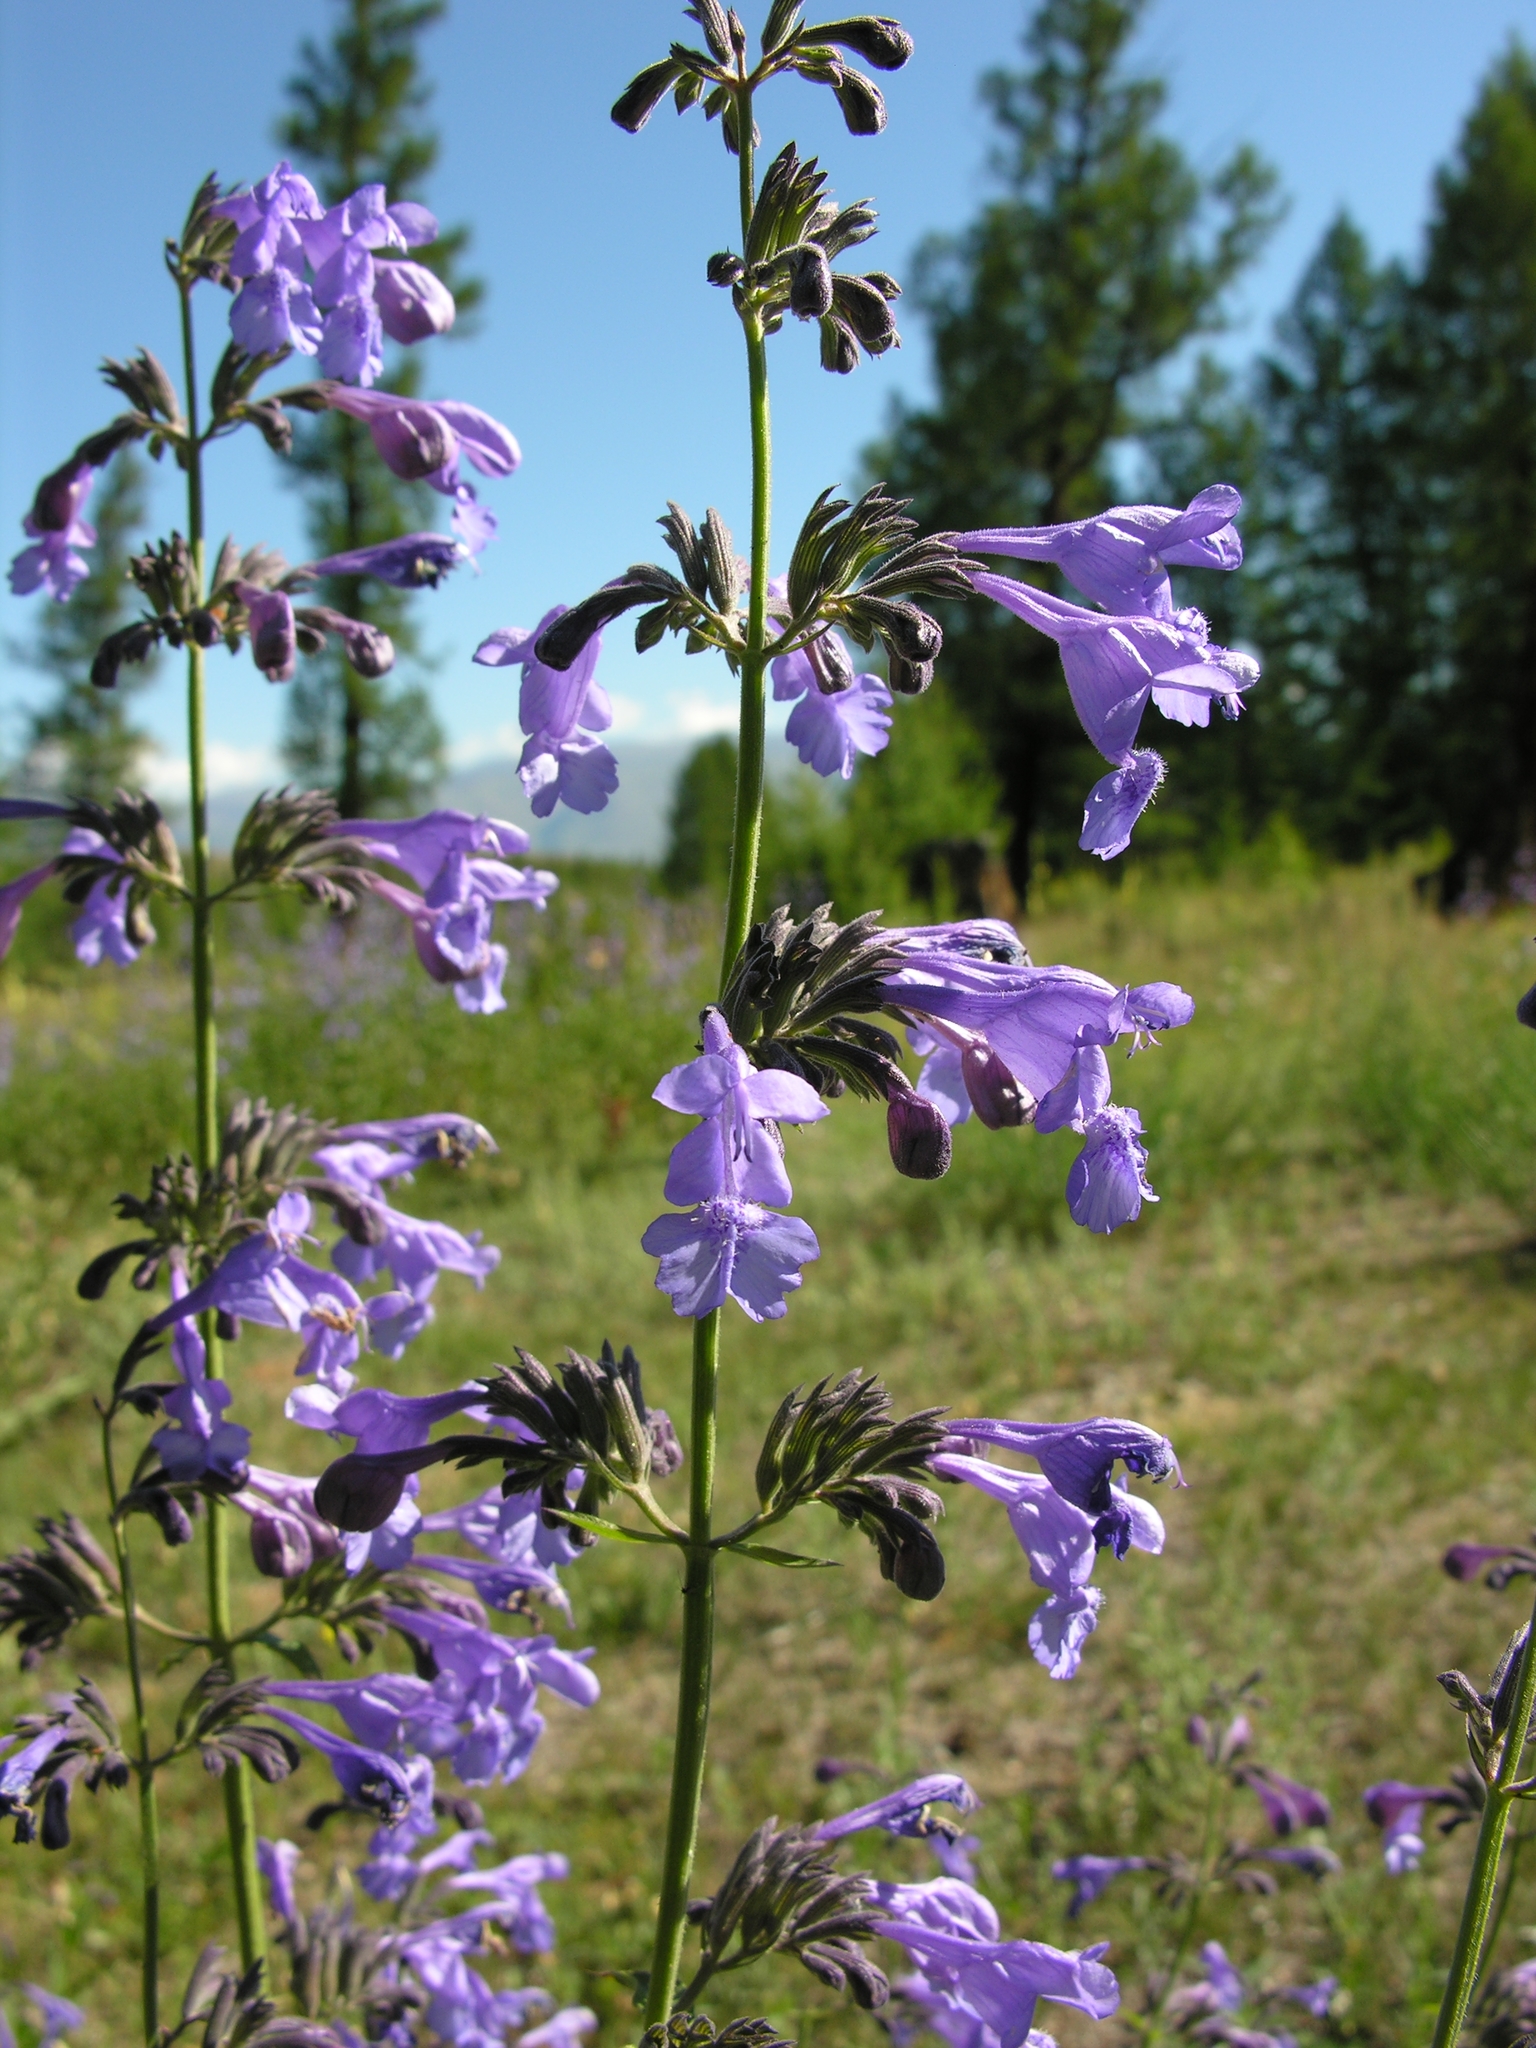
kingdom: Plantae
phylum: Tracheophyta
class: Magnoliopsida
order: Lamiales
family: Lamiaceae
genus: Nepeta
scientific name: Nepeta sibirica
